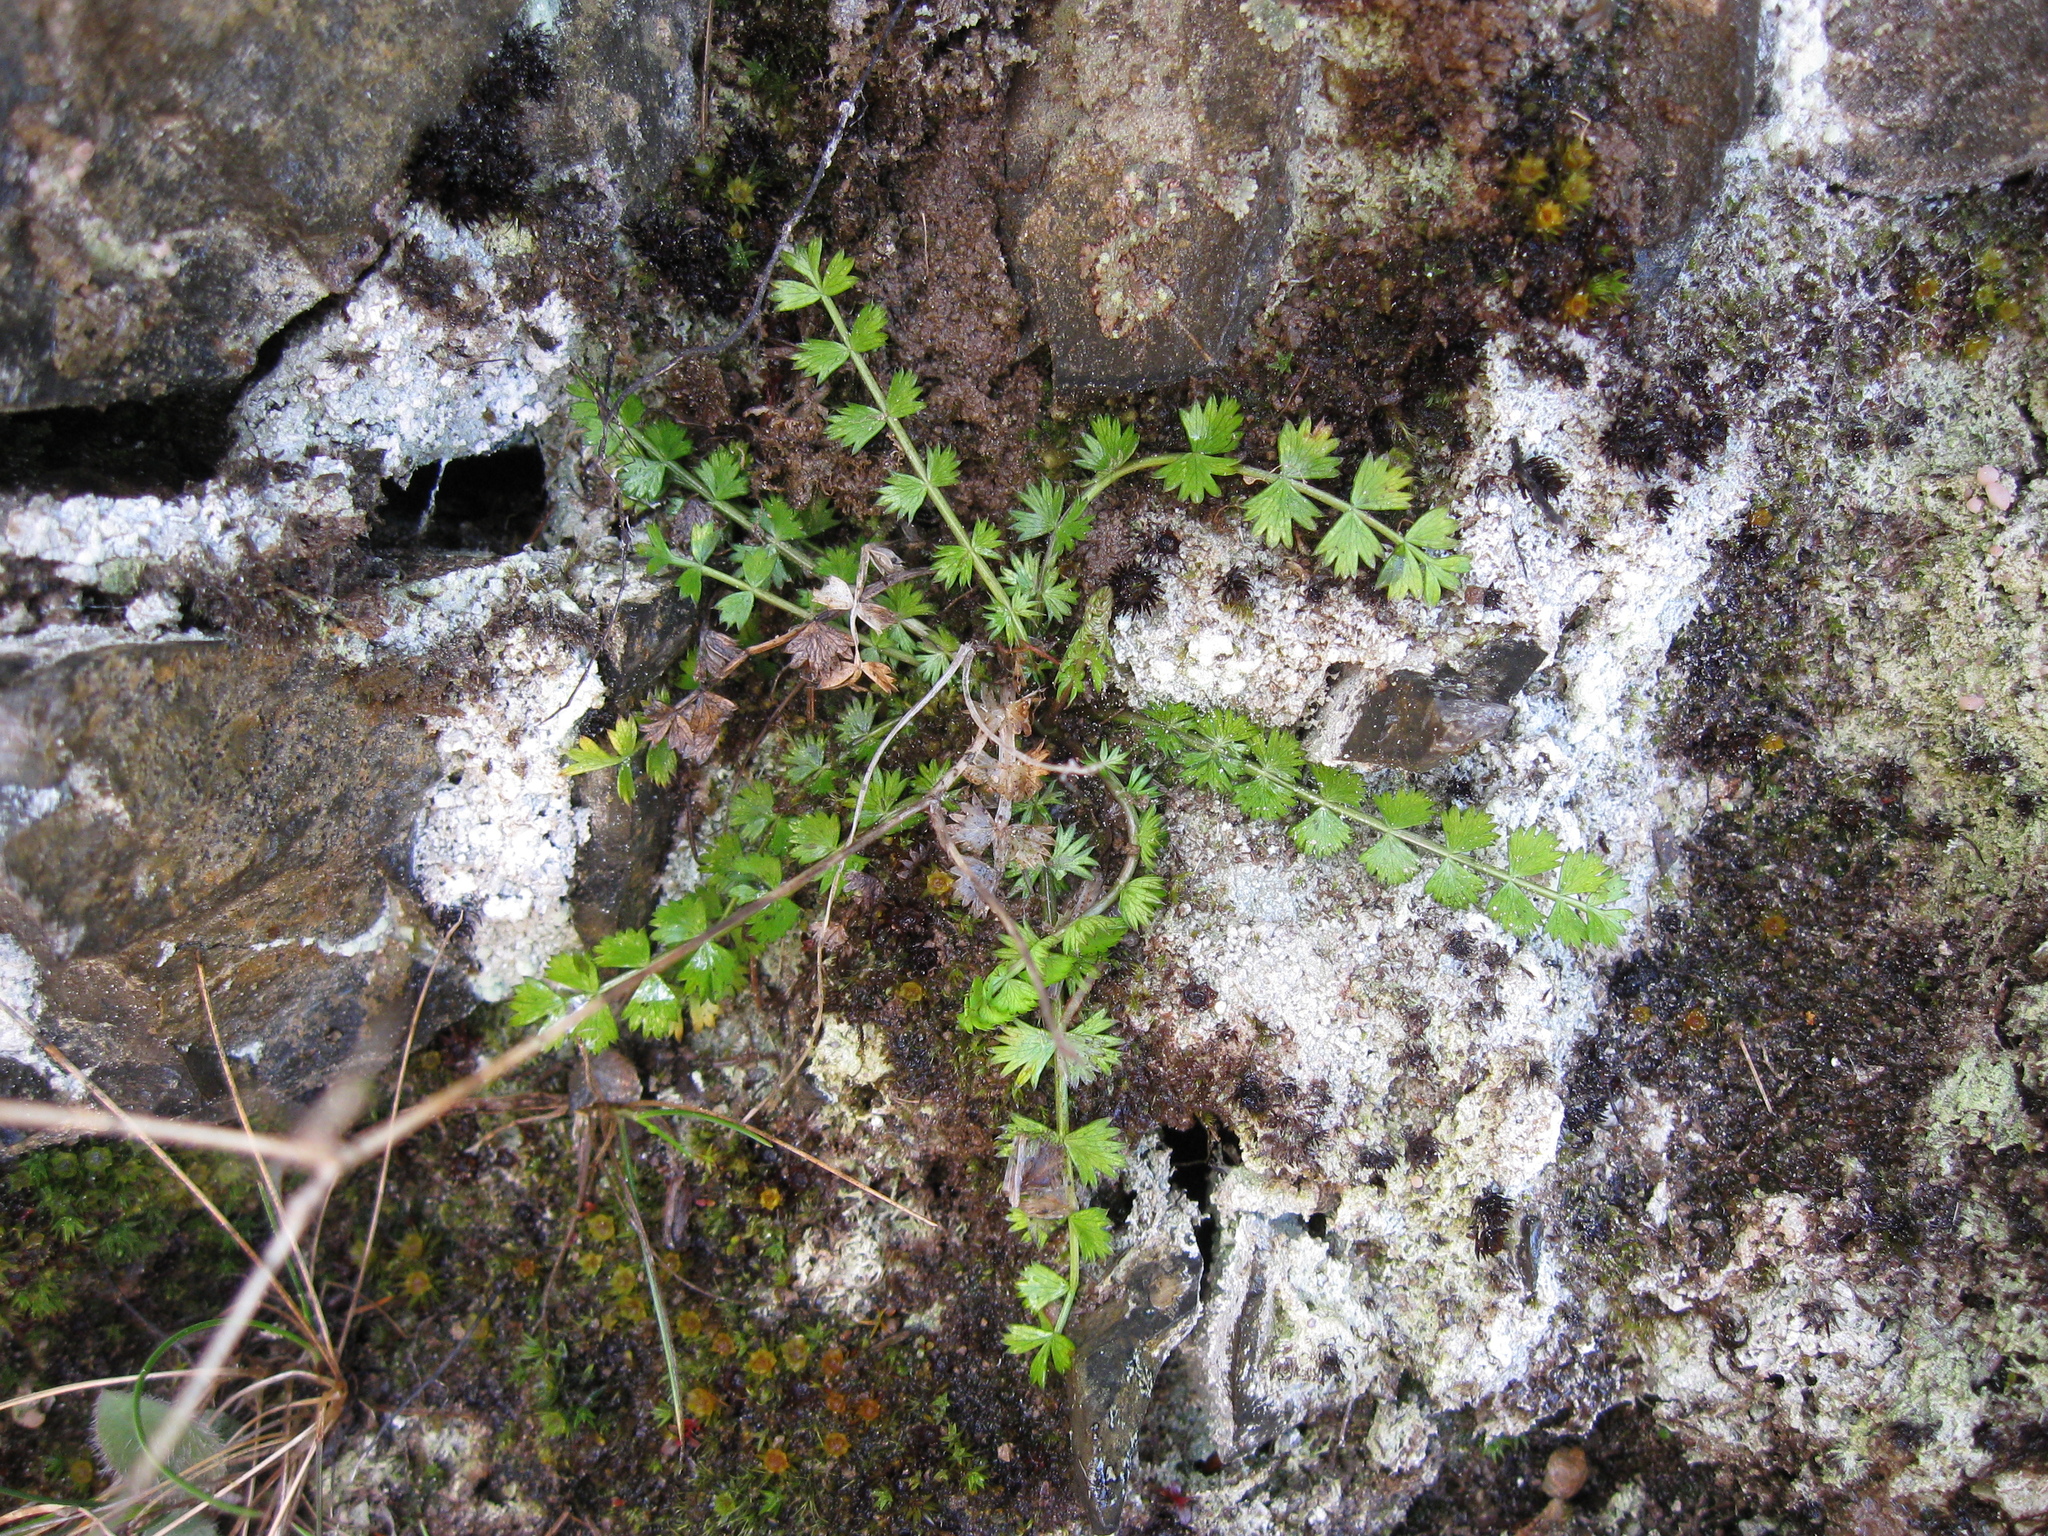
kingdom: Plantae
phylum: Tracheophyta
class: Magnoliopsida
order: Apiales
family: Apiaceae
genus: Anisotome
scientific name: Anisotome aromatica
